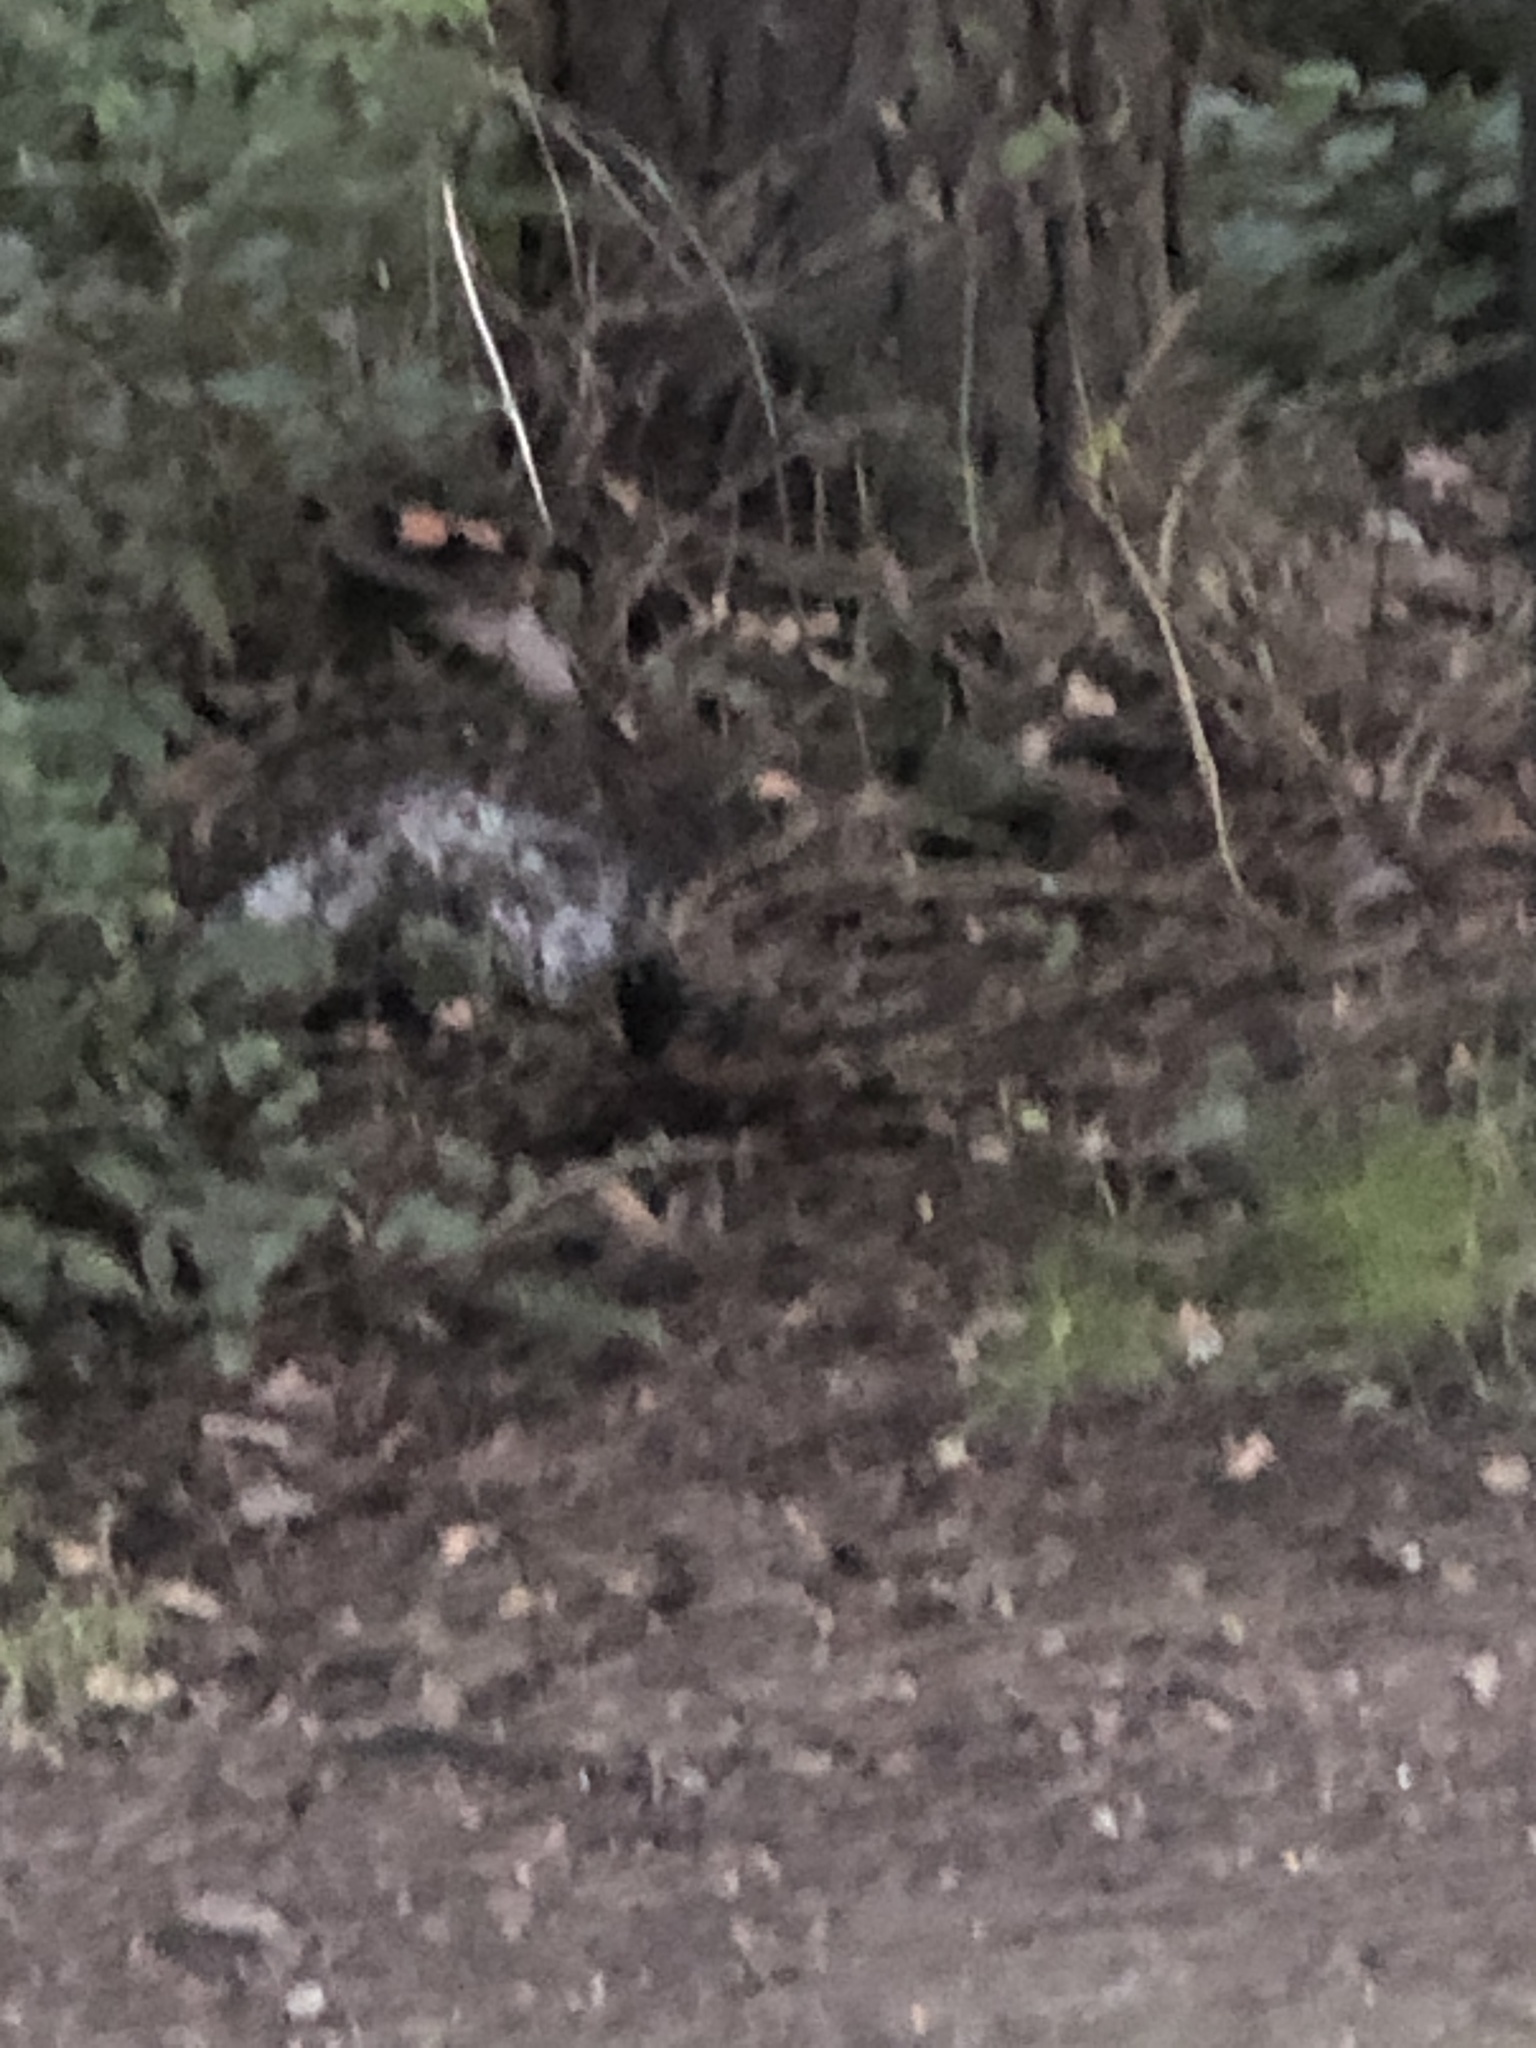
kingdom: Animalia
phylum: Chordata
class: Aves
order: Passeriformes
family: Passerellidae
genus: Pipilo
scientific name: Pipilo maculatus
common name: Spotted towhee
